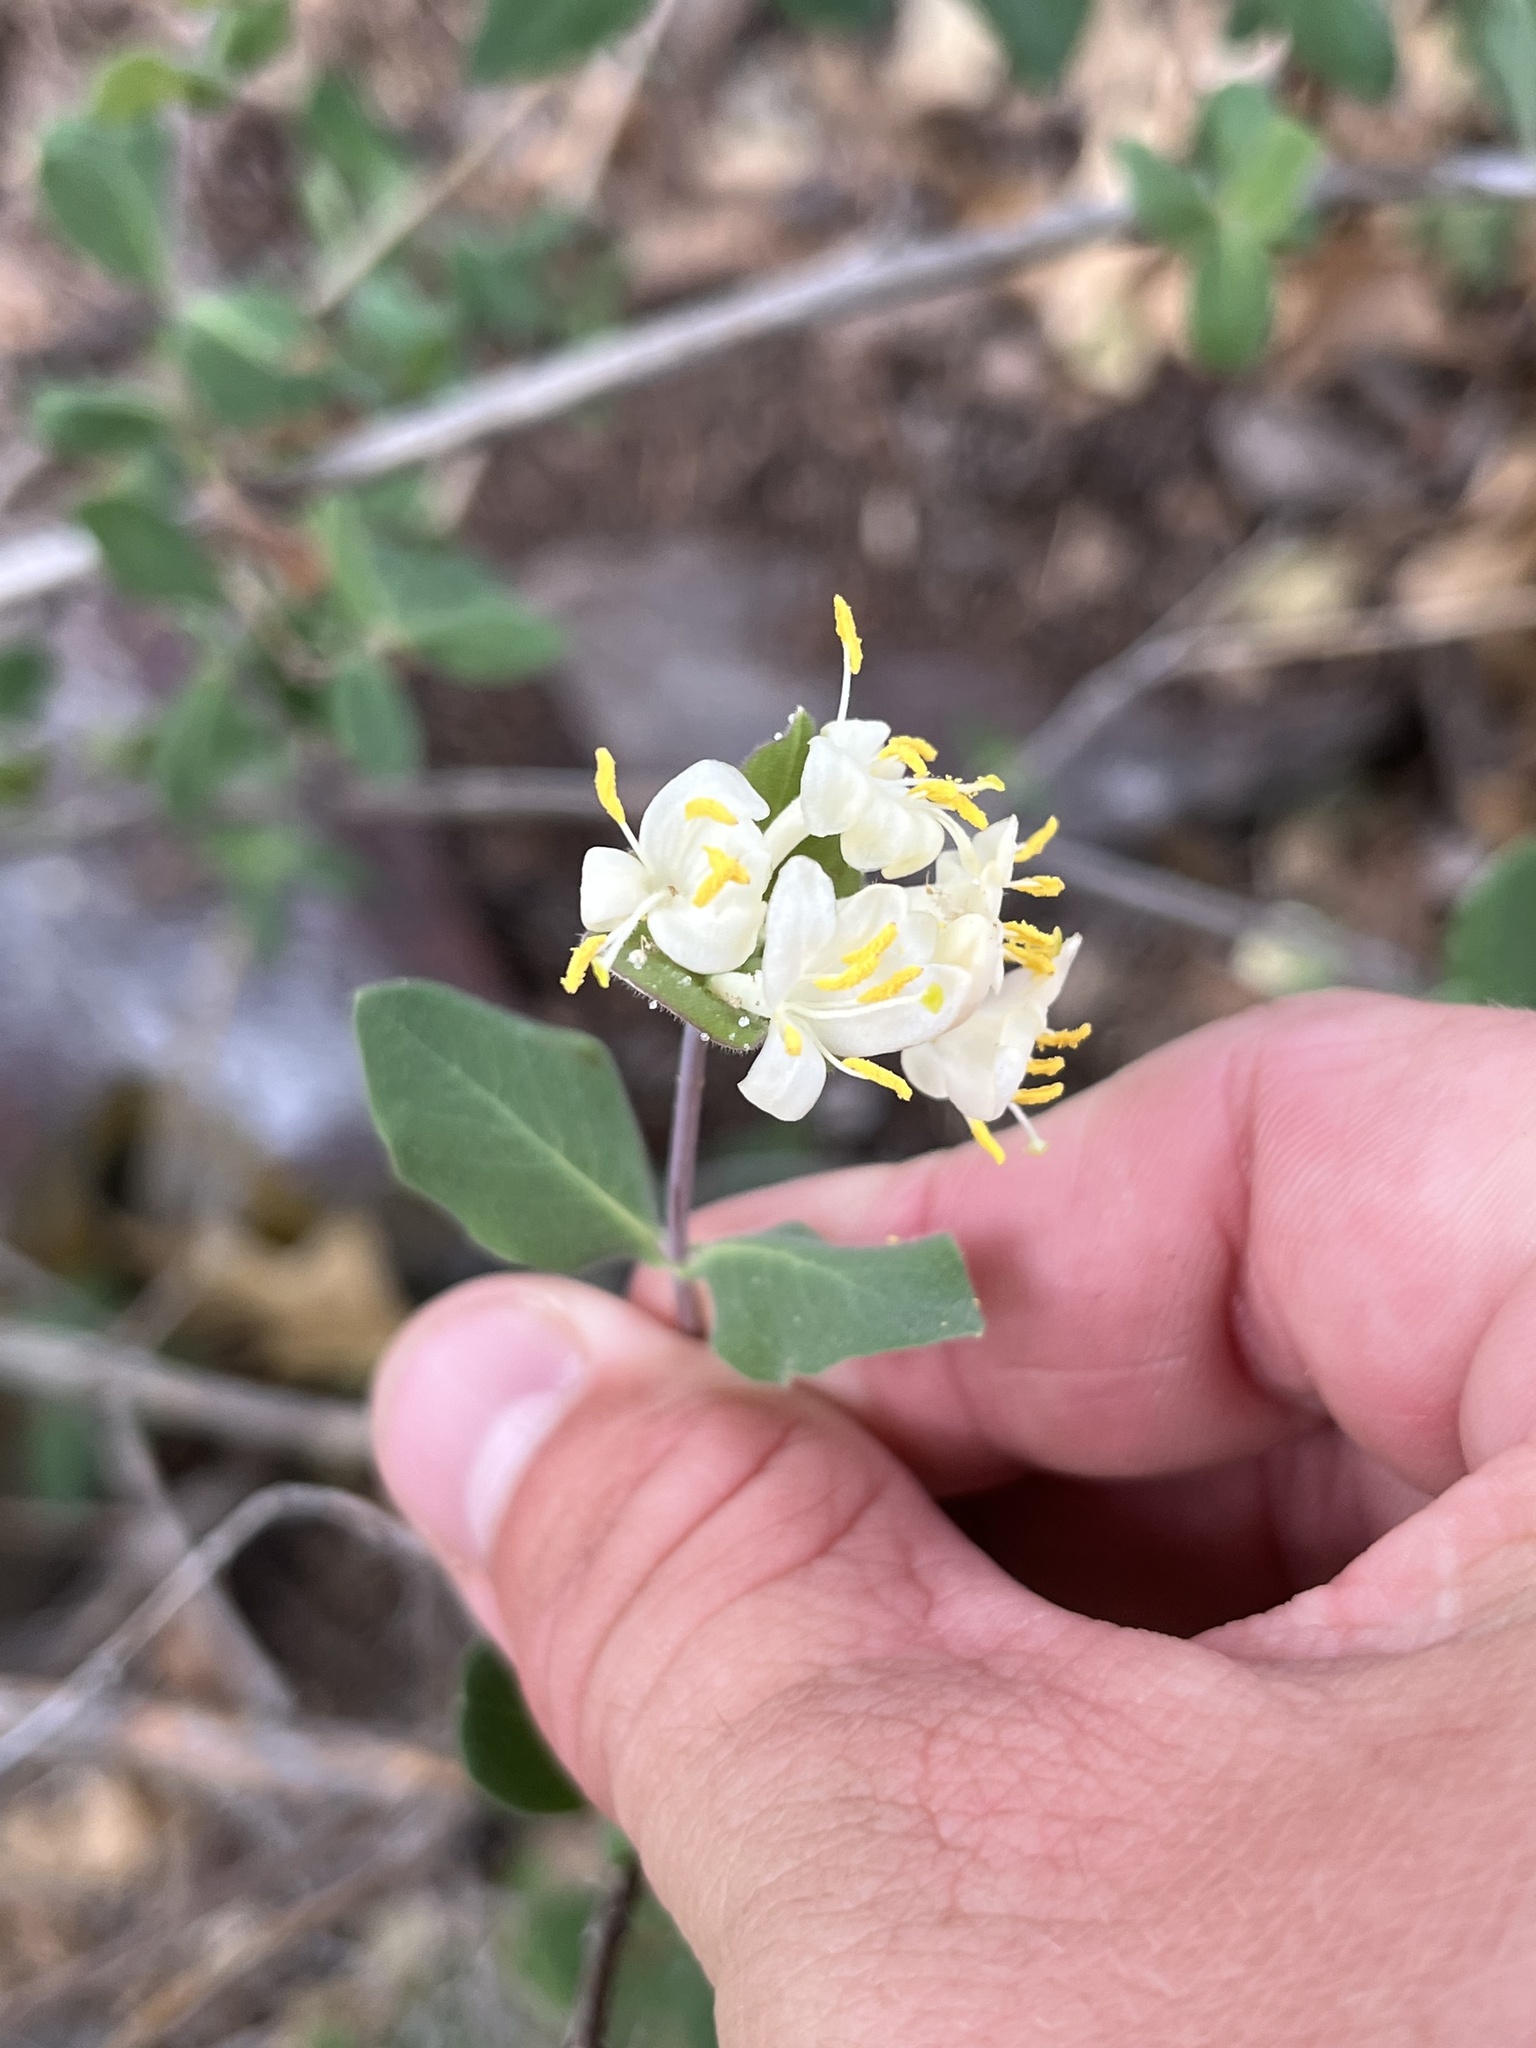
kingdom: Plantae
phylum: Tracheophyta
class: Magnoliopsida
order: Dipsacales
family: Caprifoliaceae
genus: Lonicera
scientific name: Lonicera albiflora
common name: White honeysuckle
